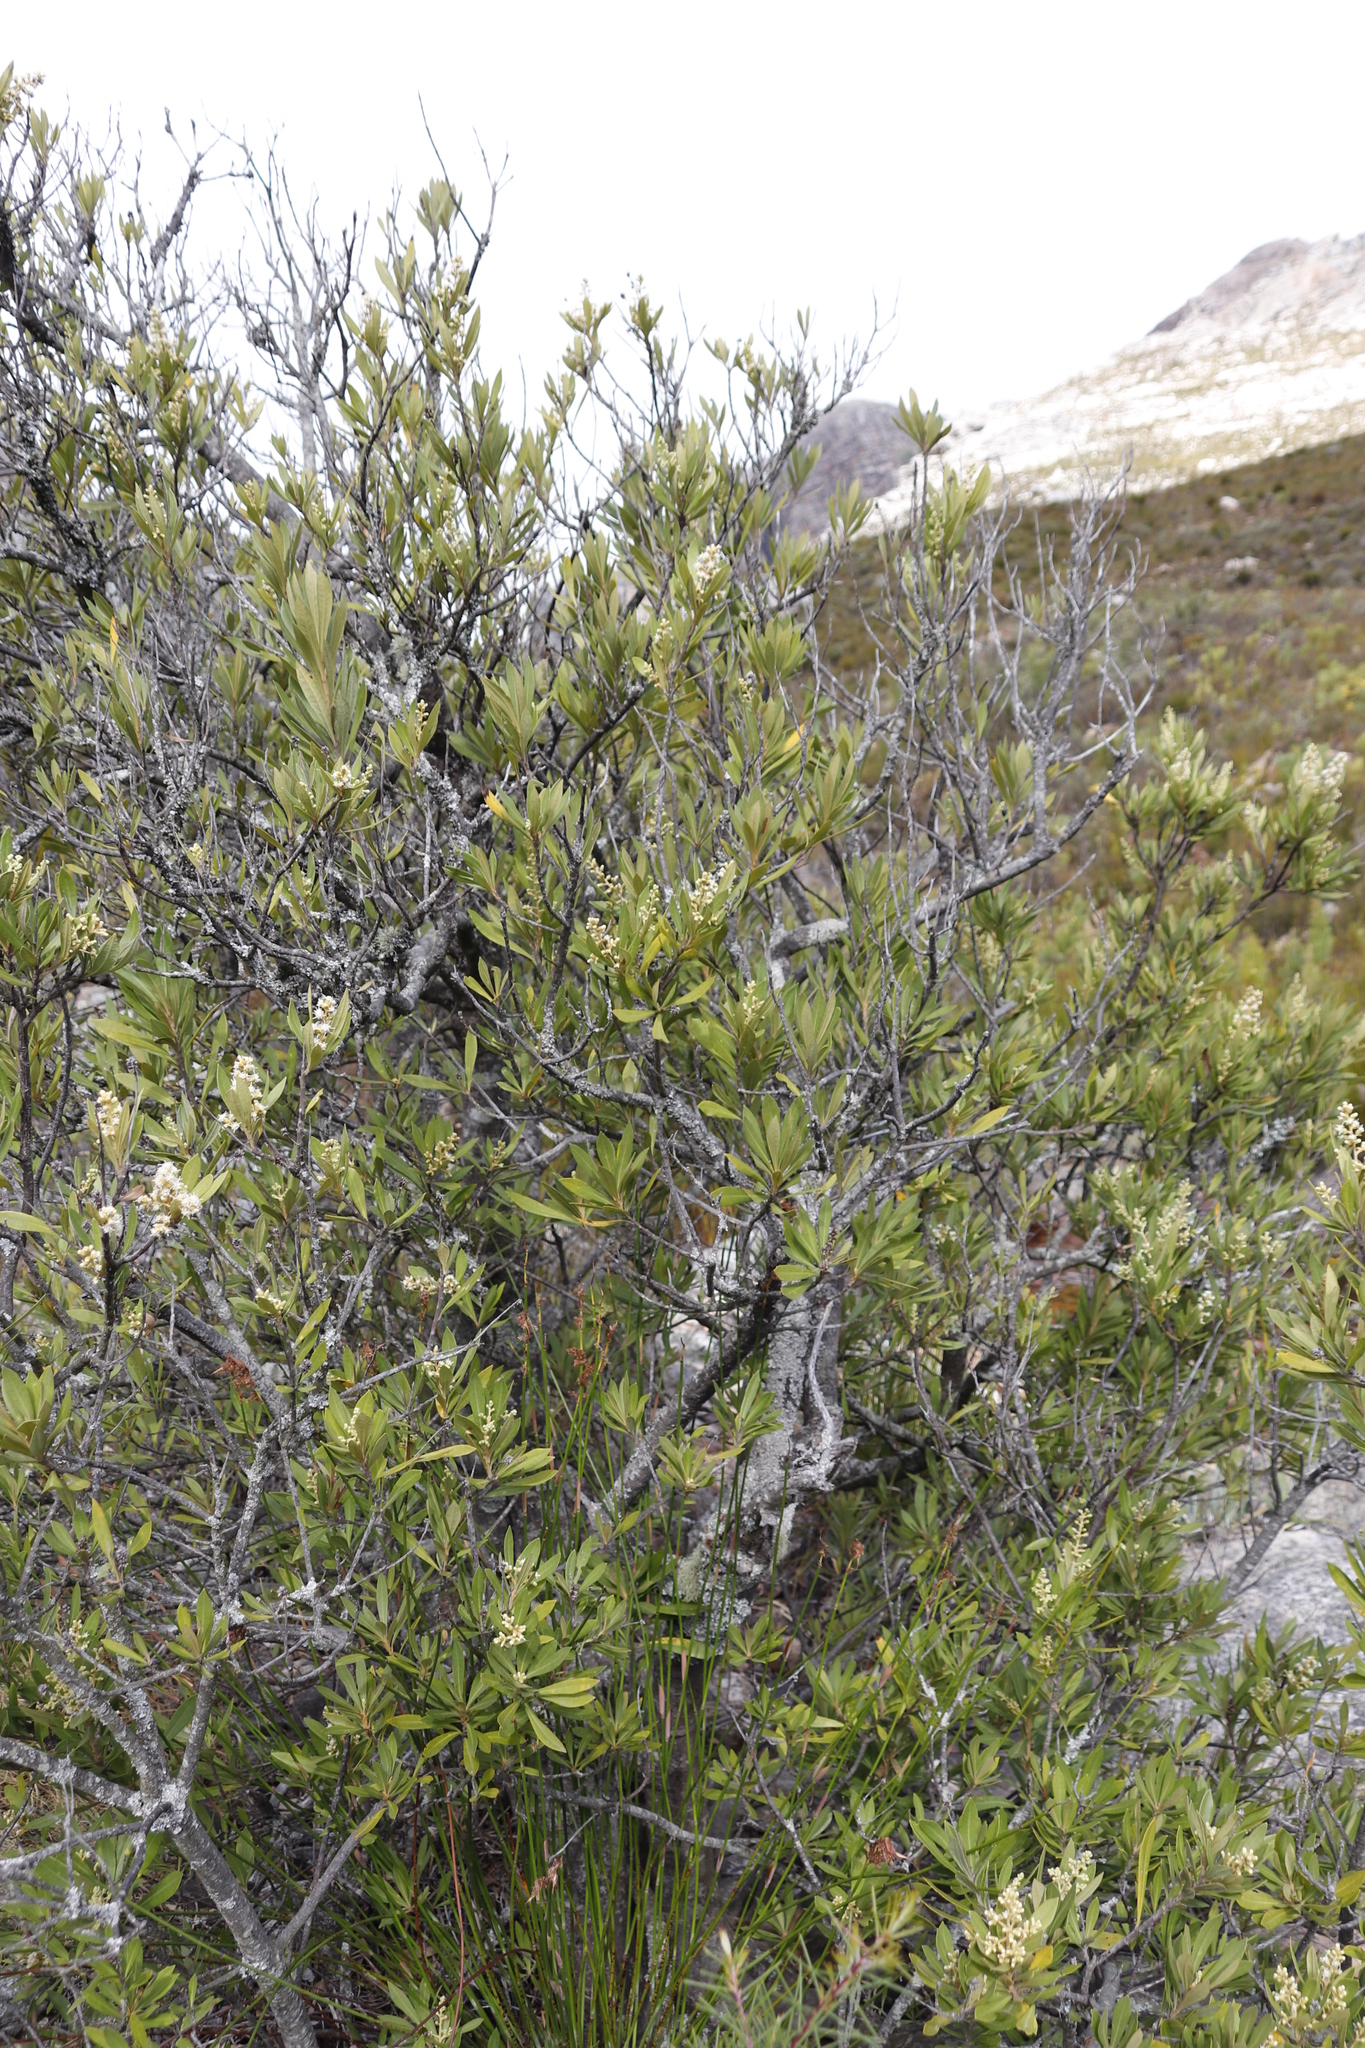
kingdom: Plantae
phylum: Tracheophyta
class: Magnoliopsida
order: Asterales
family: Asteraceae
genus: Brachylaena
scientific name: Brachylaena neriifolia
